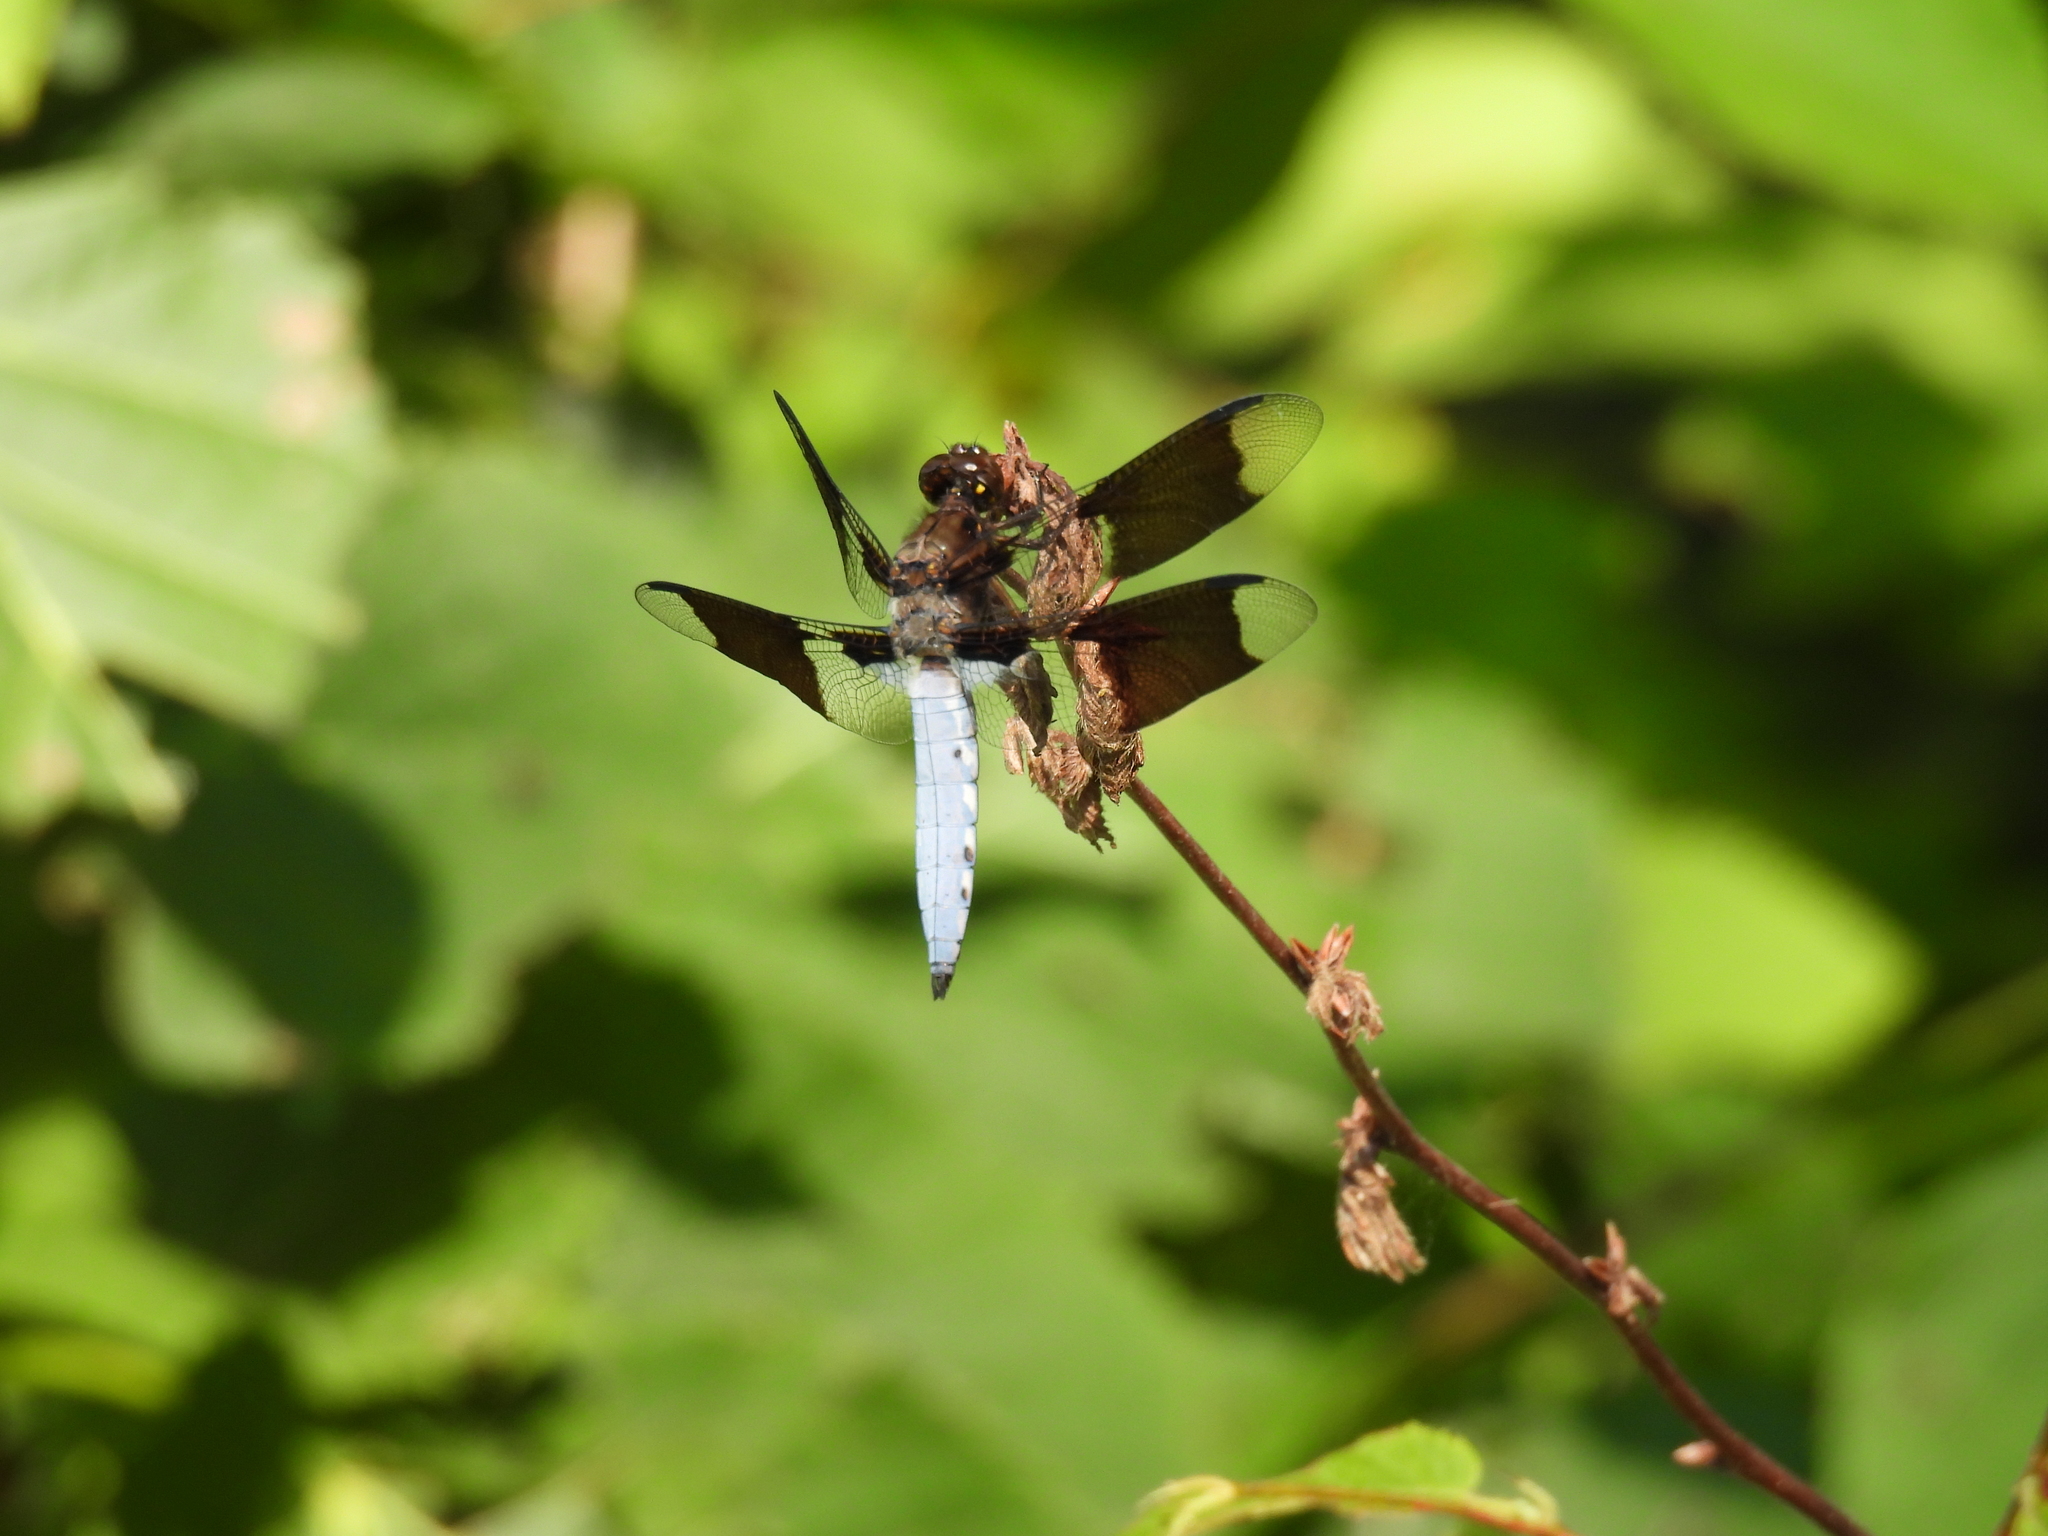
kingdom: Animalia
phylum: Arthropoda
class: Insecta
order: Odonata
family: Libellulidae
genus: Plathemis
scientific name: Plathemis lydia
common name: Common whitetail
